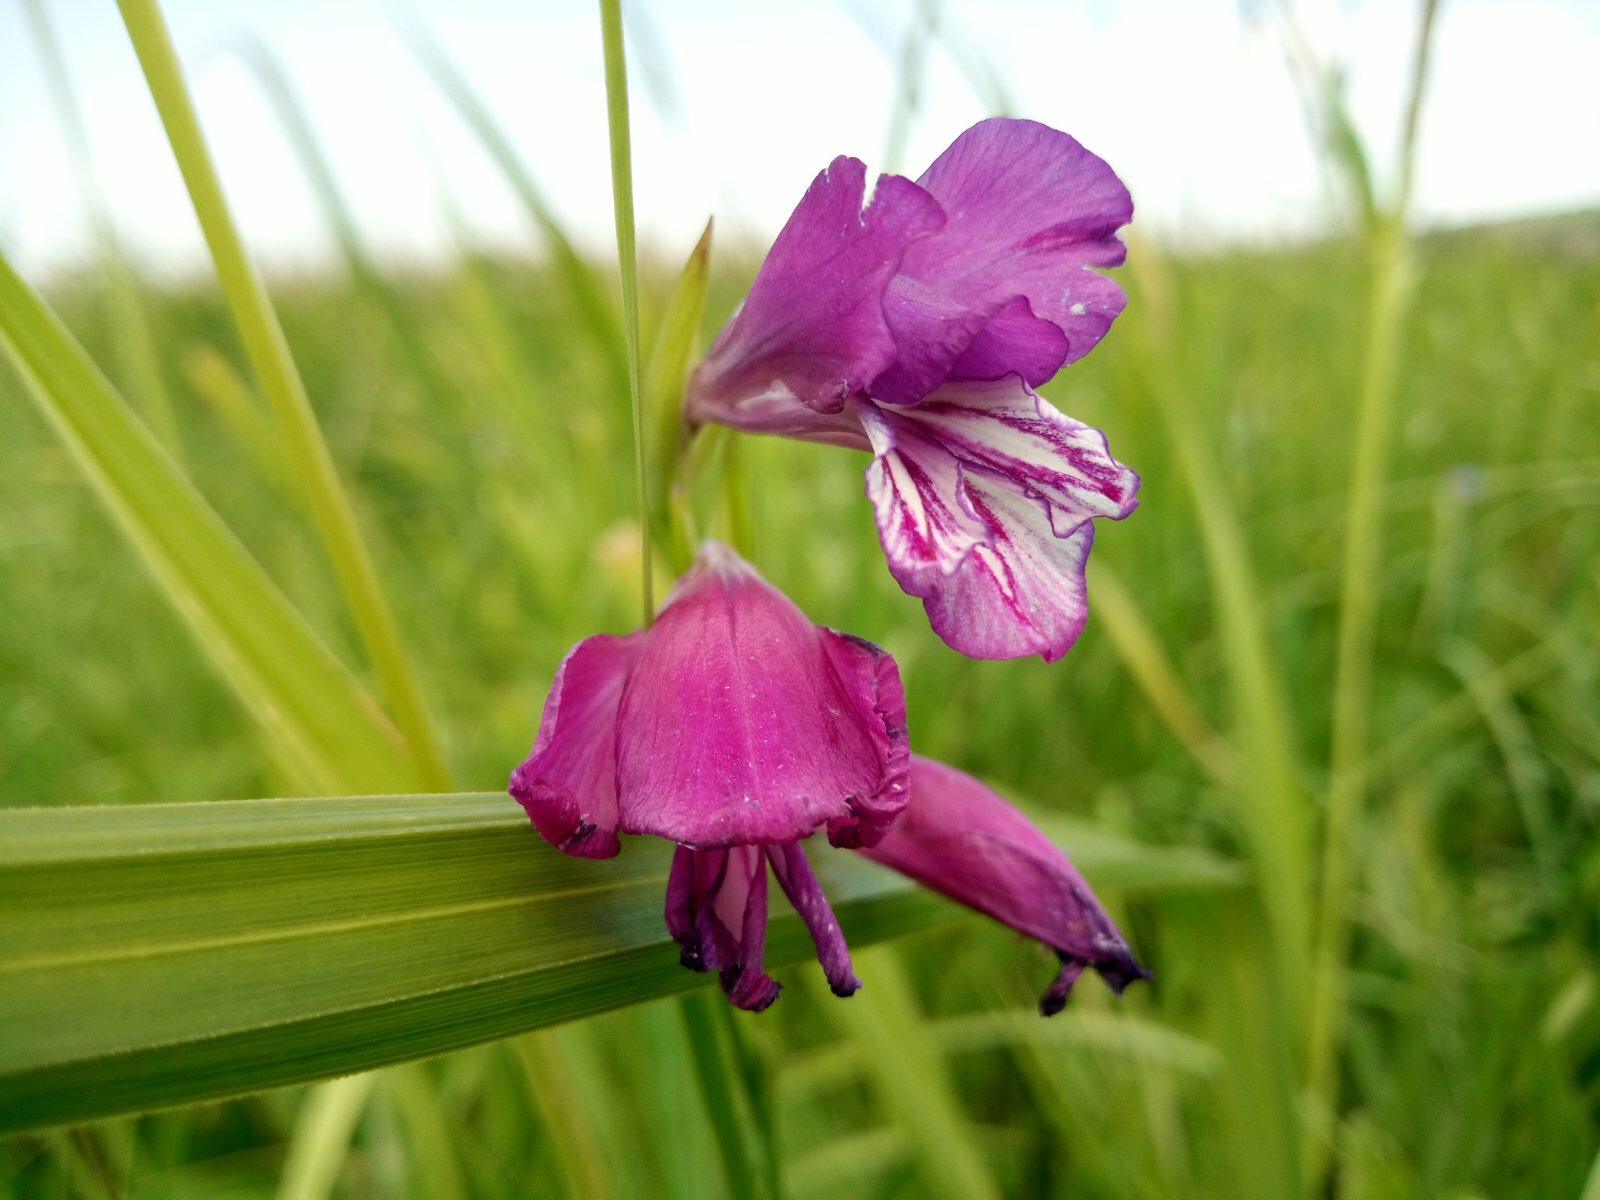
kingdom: Plantae
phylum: Tracheophyta
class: Liliopsida
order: Asparagales
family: Iridaceae
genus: Gladiolus
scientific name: Gladiolus tenuis
